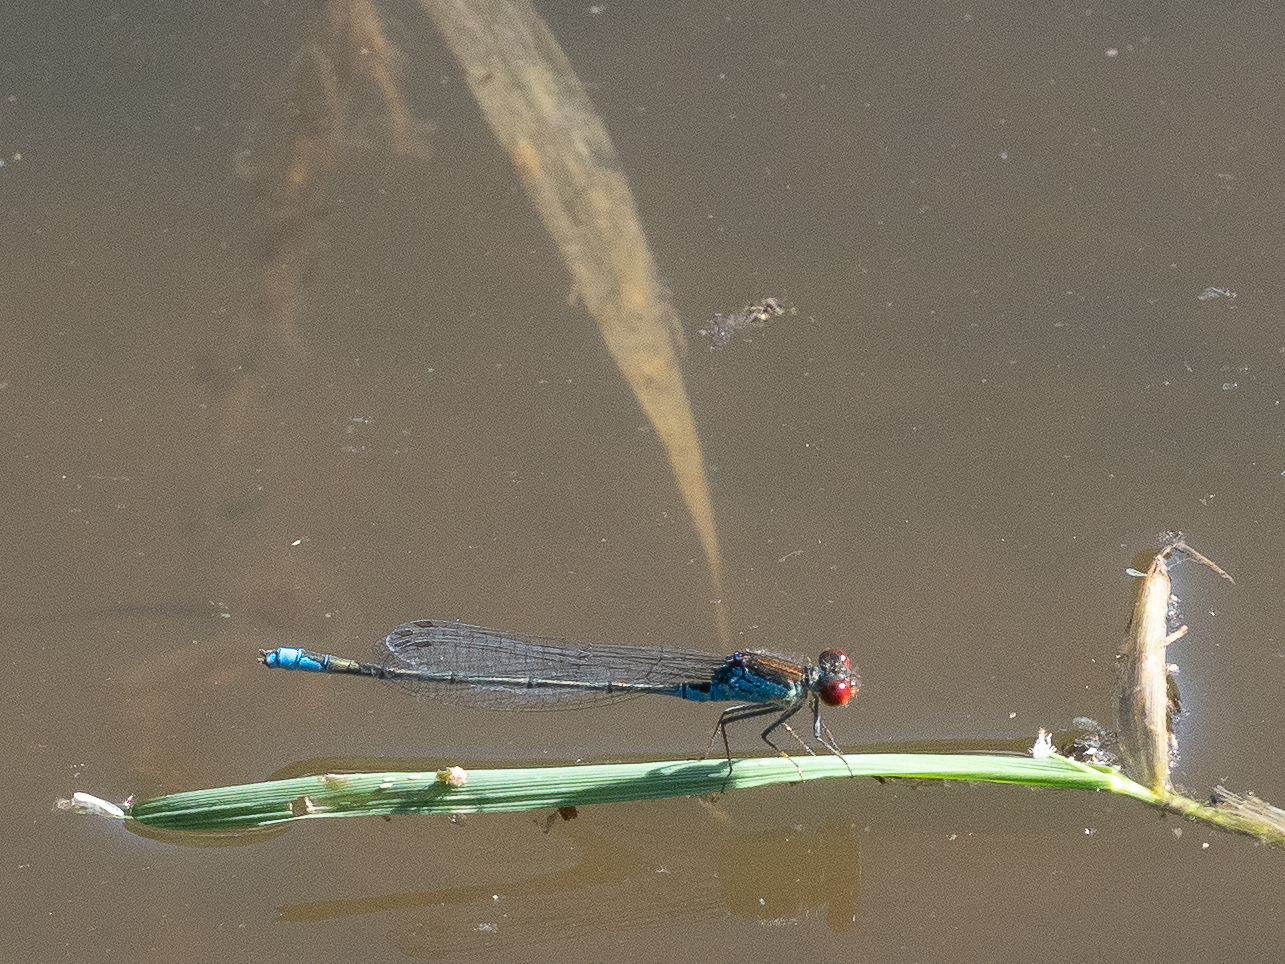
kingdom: Animalia
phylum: Arthropoda
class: Insecta
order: Odonata
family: Coenagrionidae
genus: Erythromma
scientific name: Erythromma viridulum
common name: Small red-eyed damselfly
